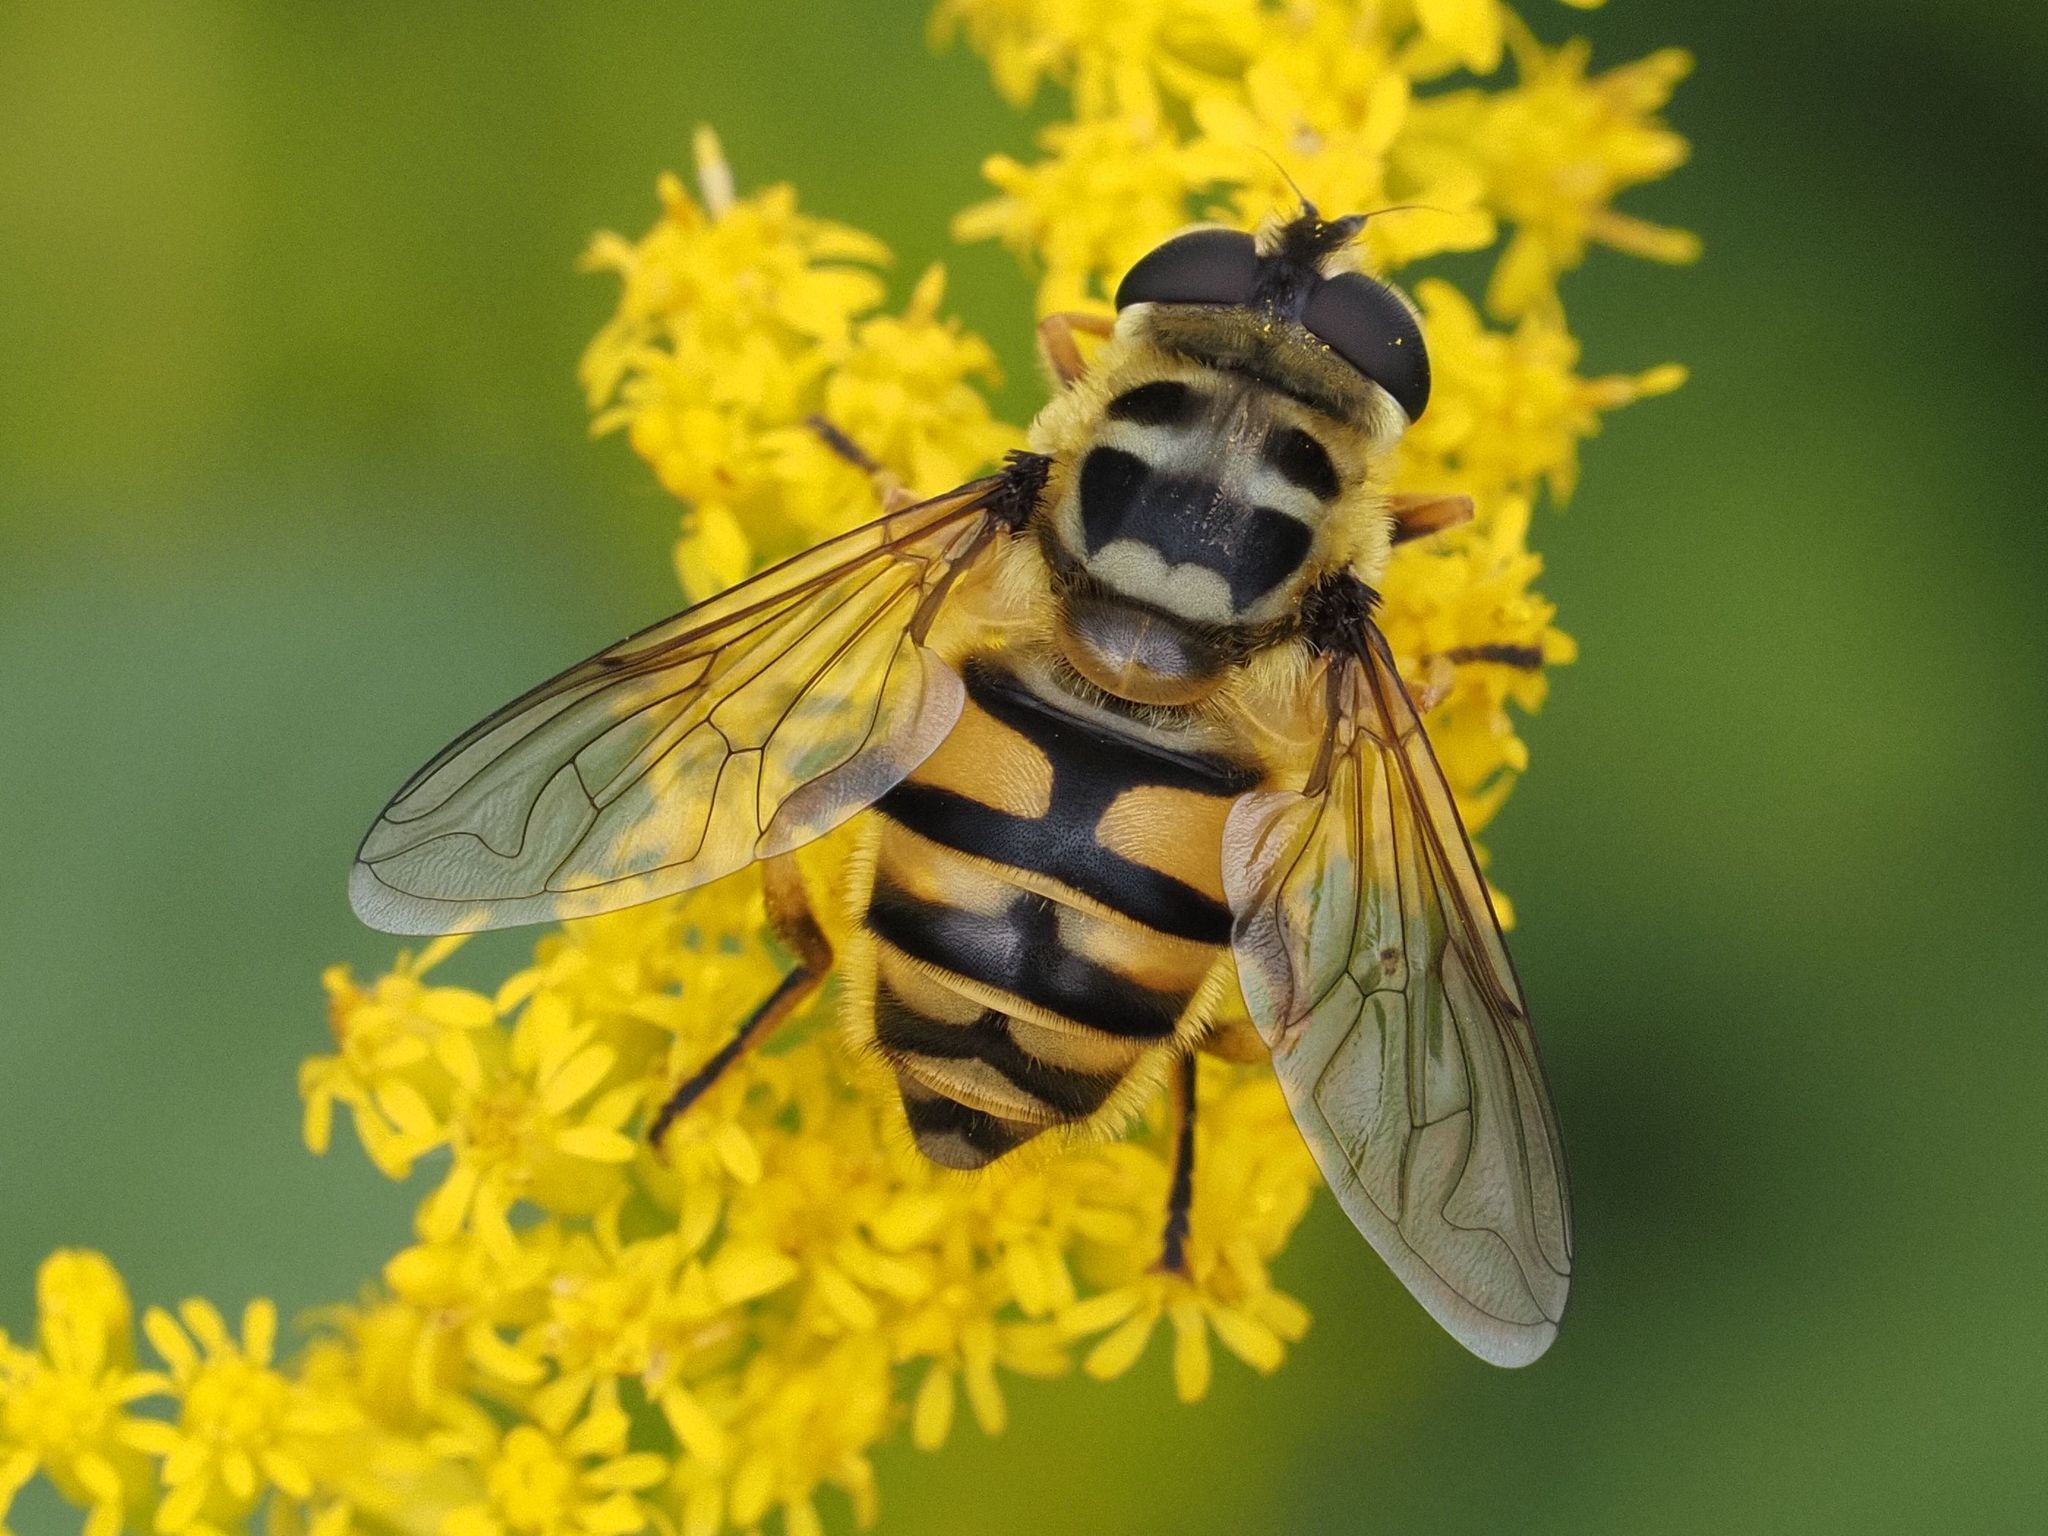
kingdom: Animalia
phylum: Arthropoda
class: Insecta
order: Diptera
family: Syrphidae
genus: Myathropa
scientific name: Myathropa florea
